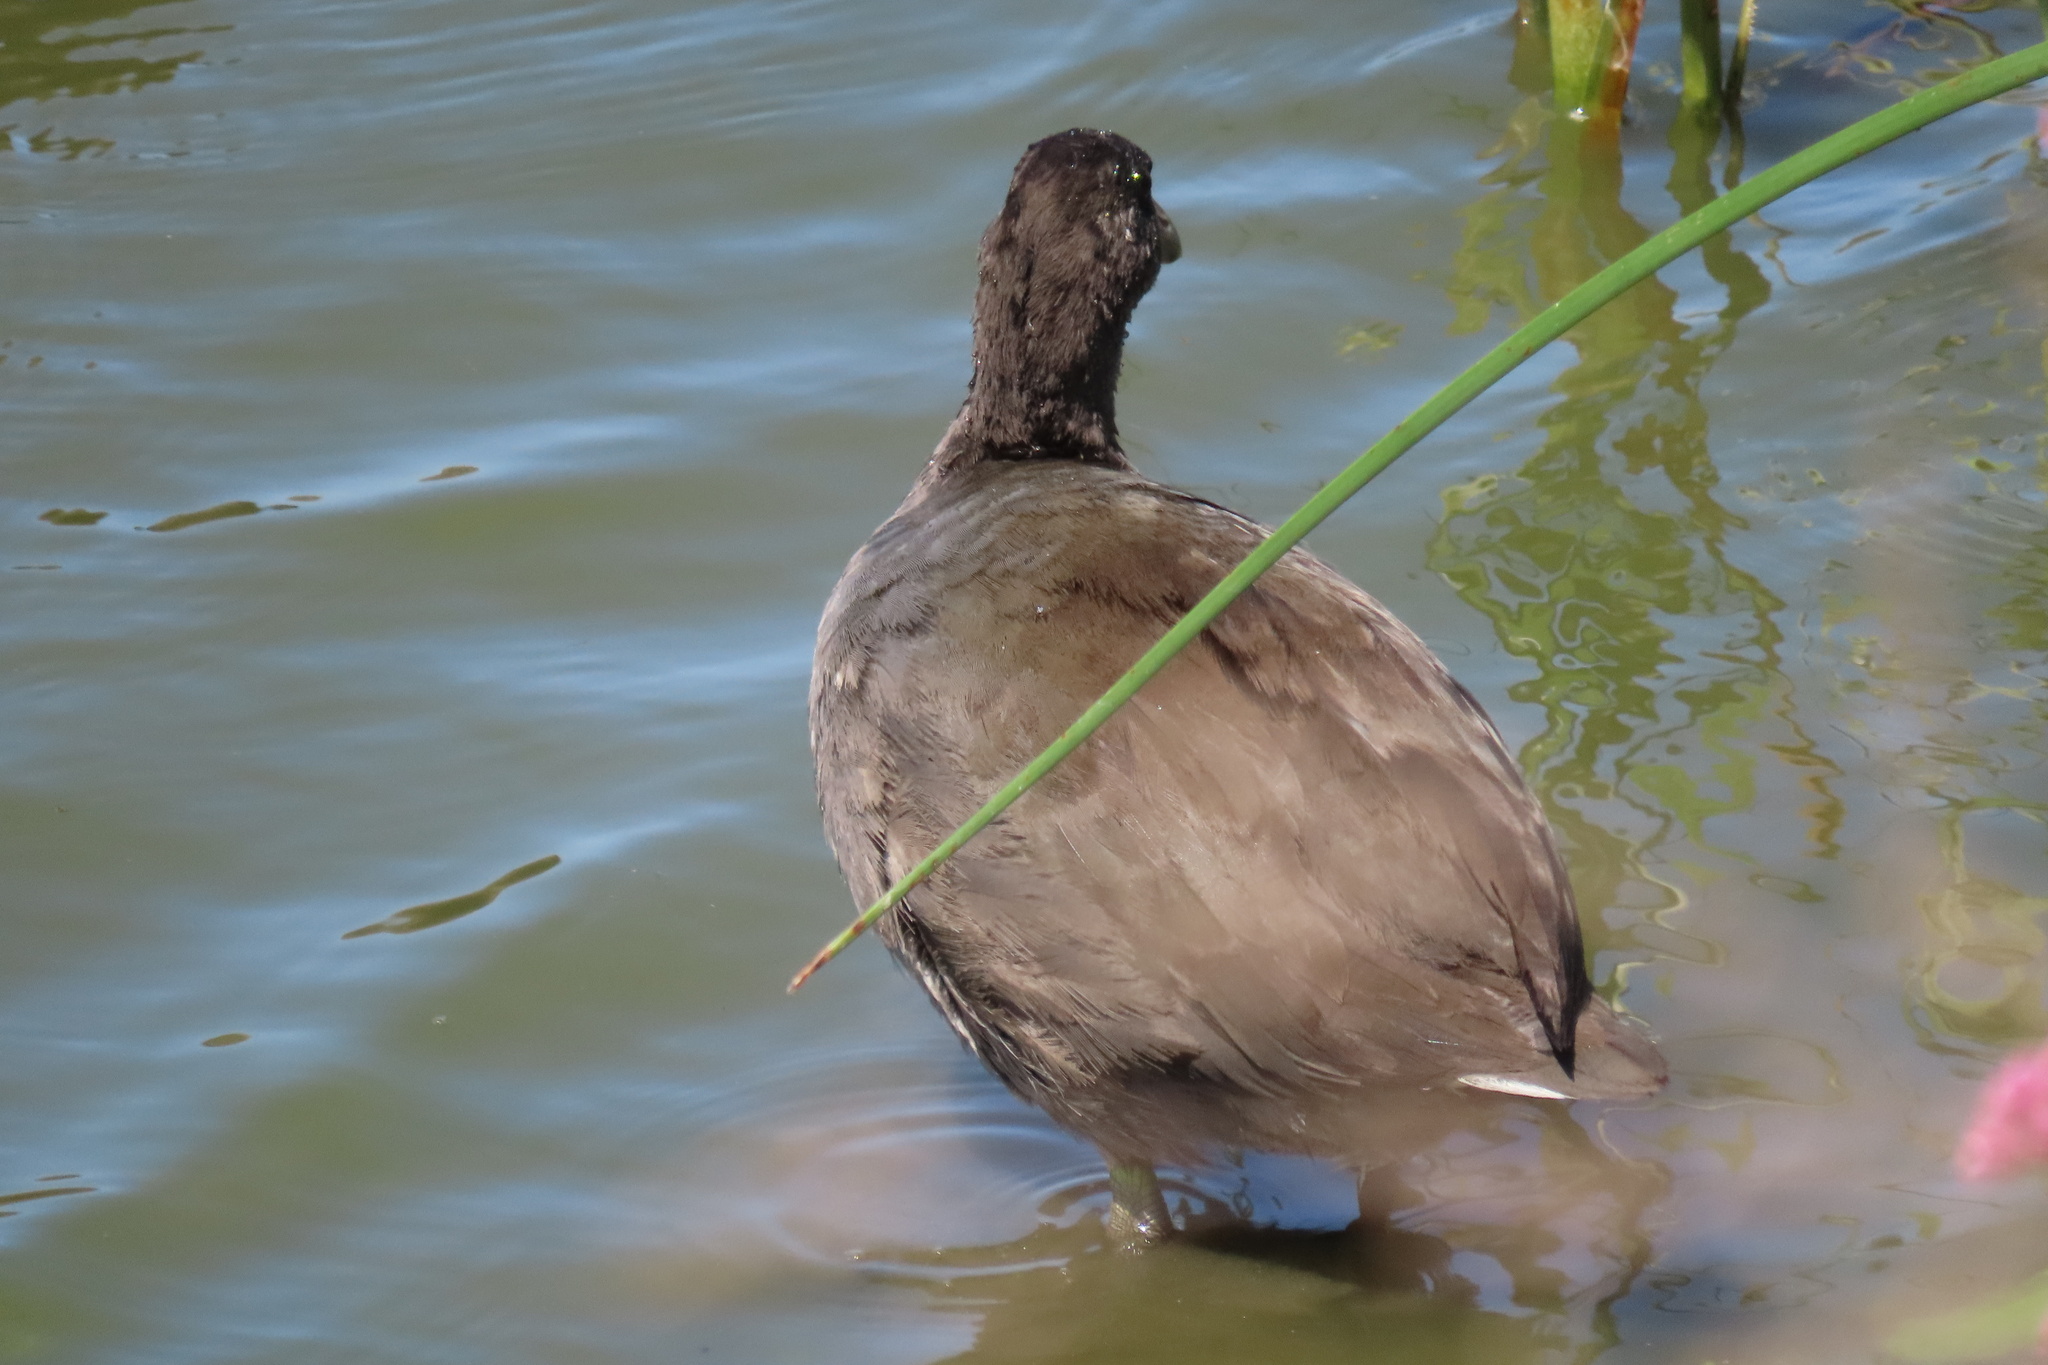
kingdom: Animalia
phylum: Chordata
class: Aves
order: Gruiformes
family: Rallidae
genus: Fulica
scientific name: Fulica americana
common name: American coot
